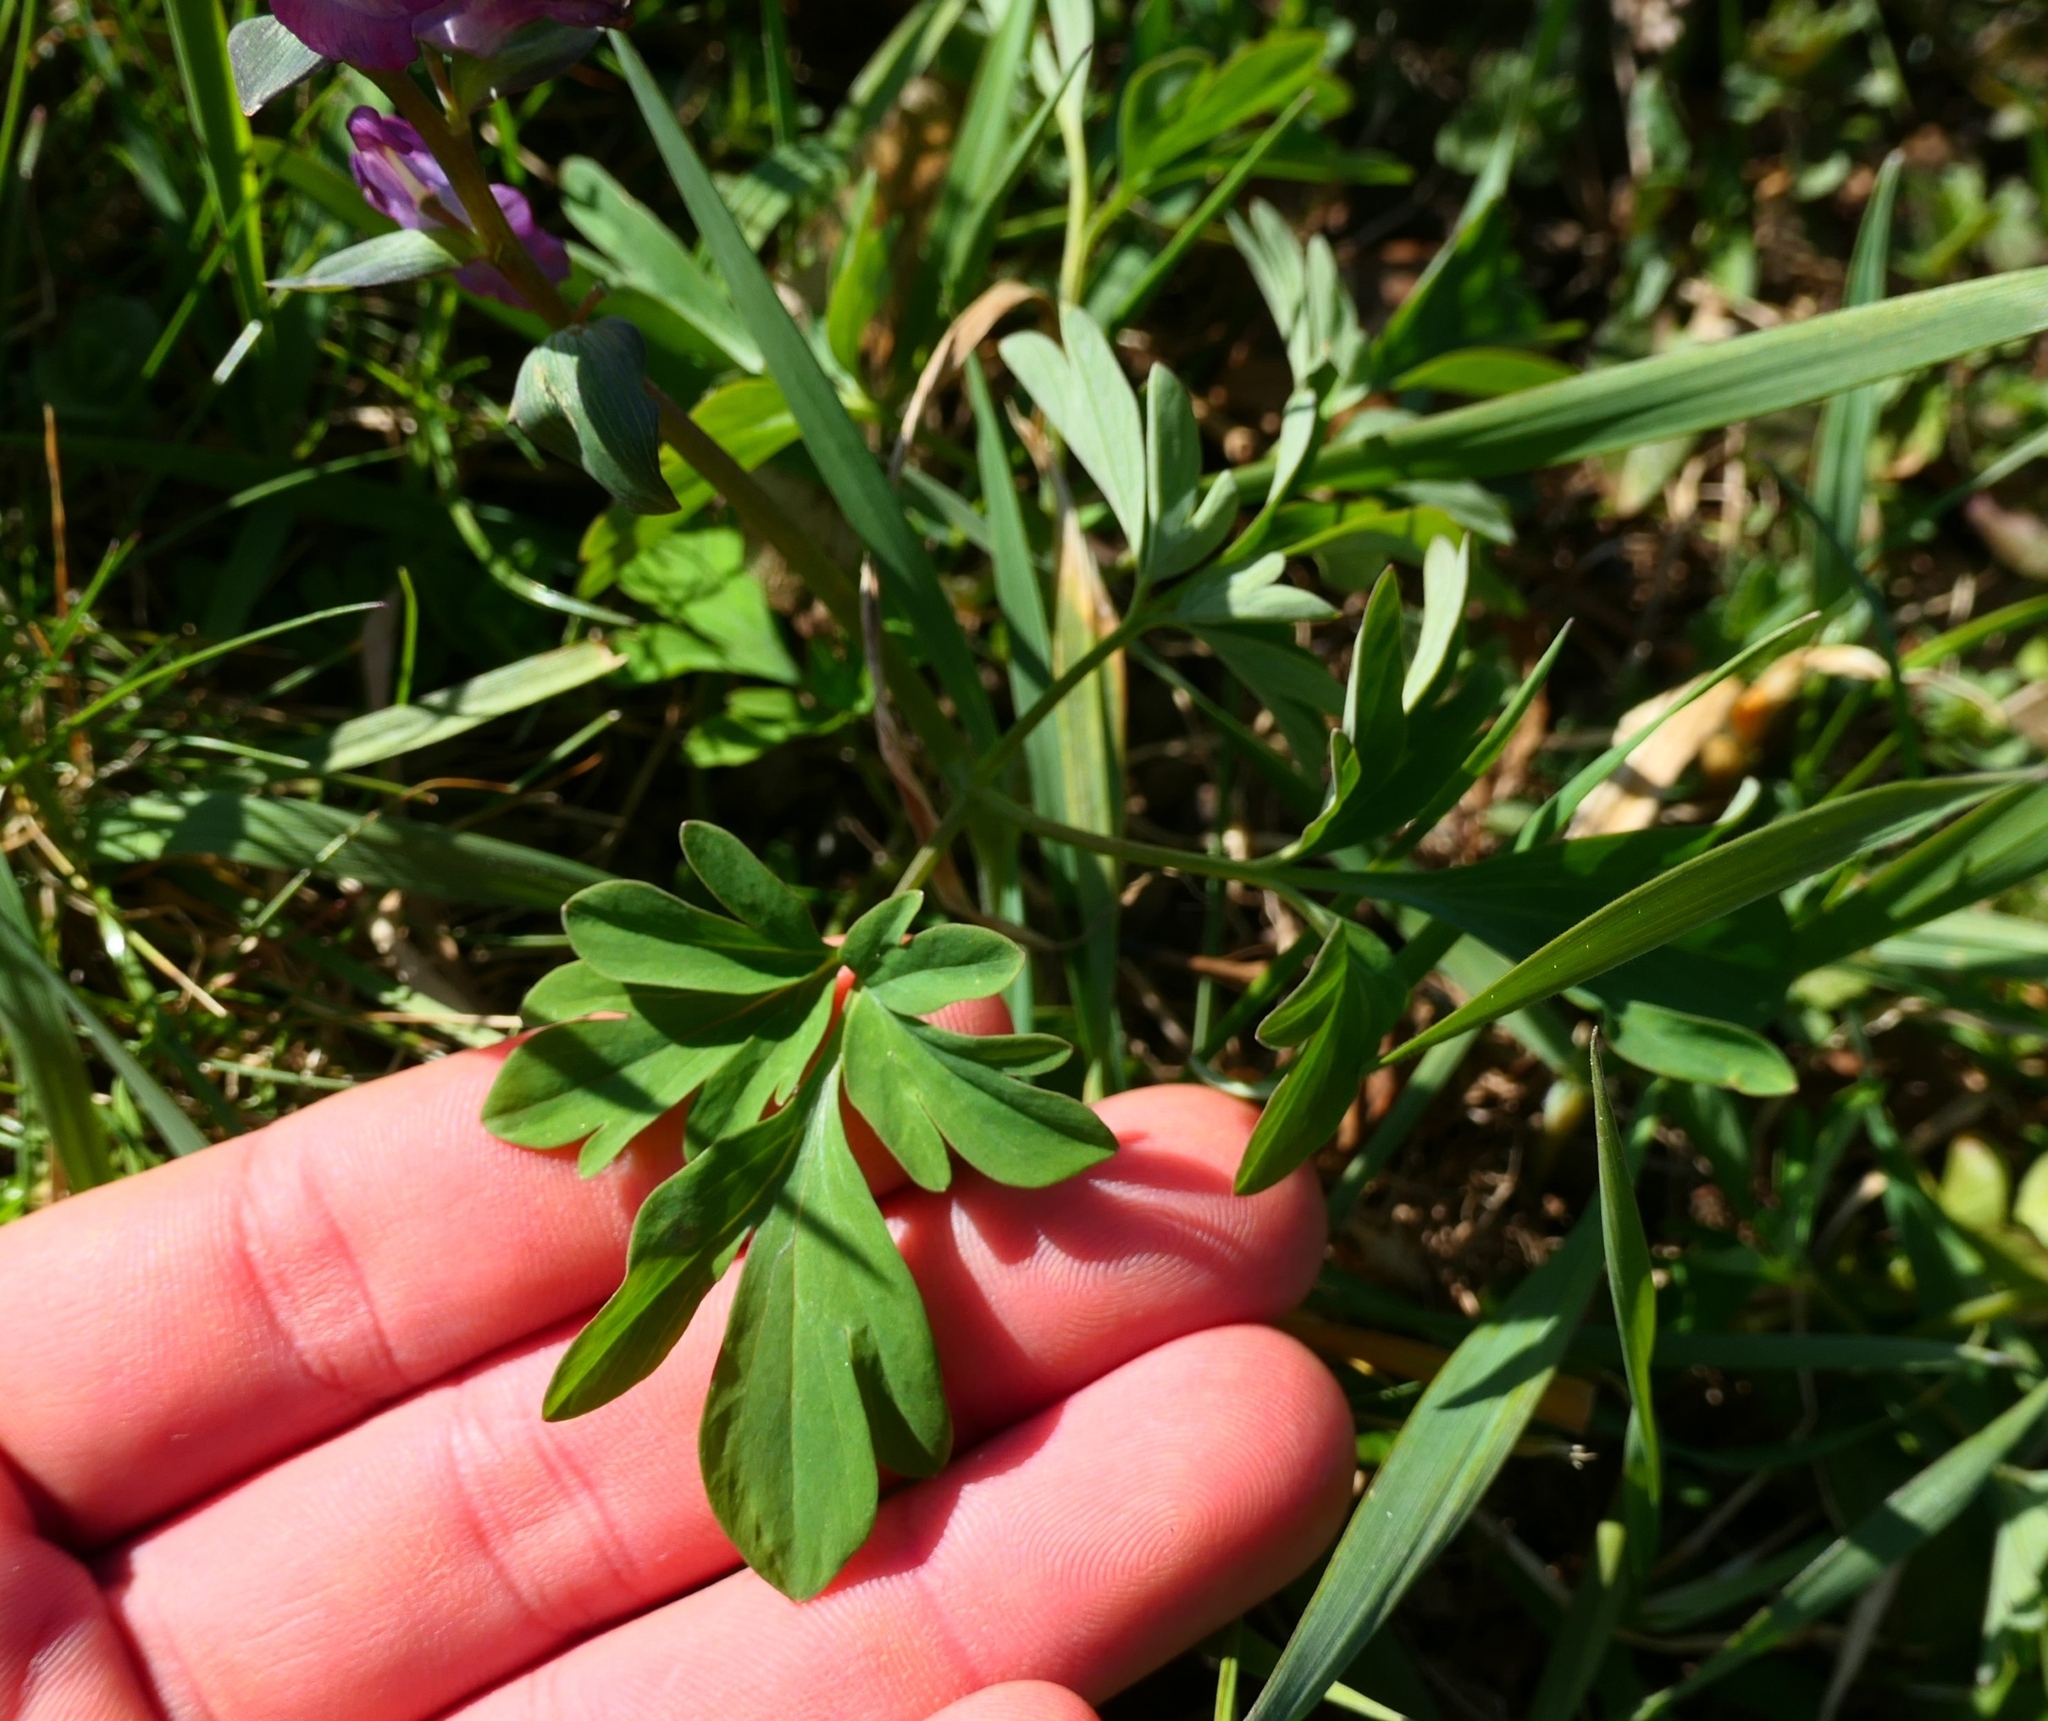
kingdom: Plantae
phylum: Tracheophyta
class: Magnoliopsida
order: Ranunculales
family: Papaveraceae
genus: Corydalis
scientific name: Corydalis cava
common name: Hollowroot
